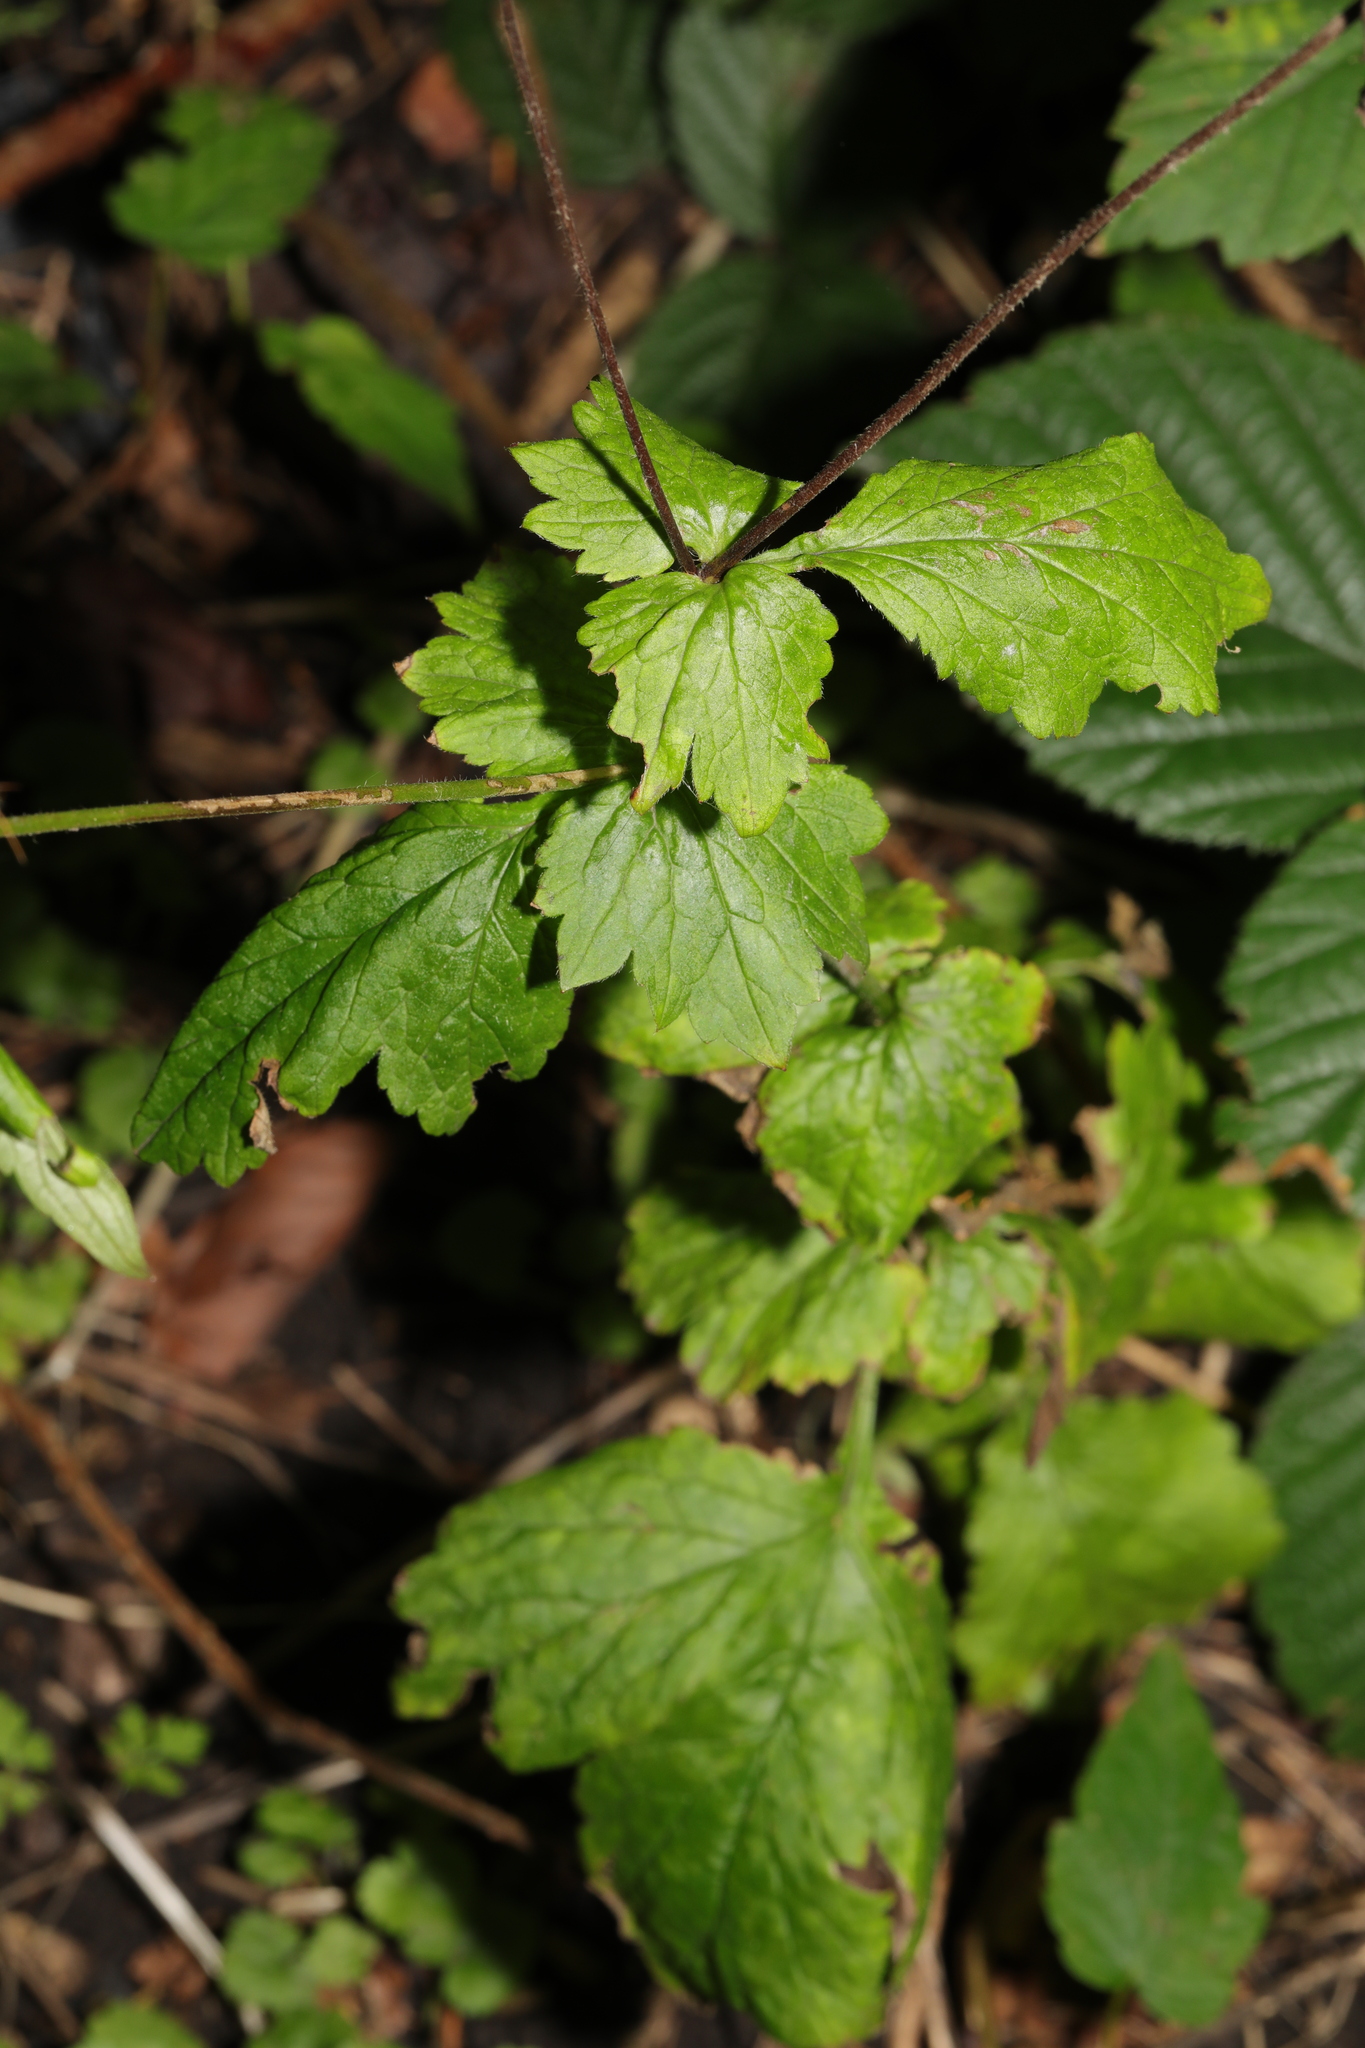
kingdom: Plantae
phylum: Tracheophyta
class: Magnoliopsida
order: Rosales
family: Rosaceae
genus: Geum
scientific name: Geum urbanum
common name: Wood avens
